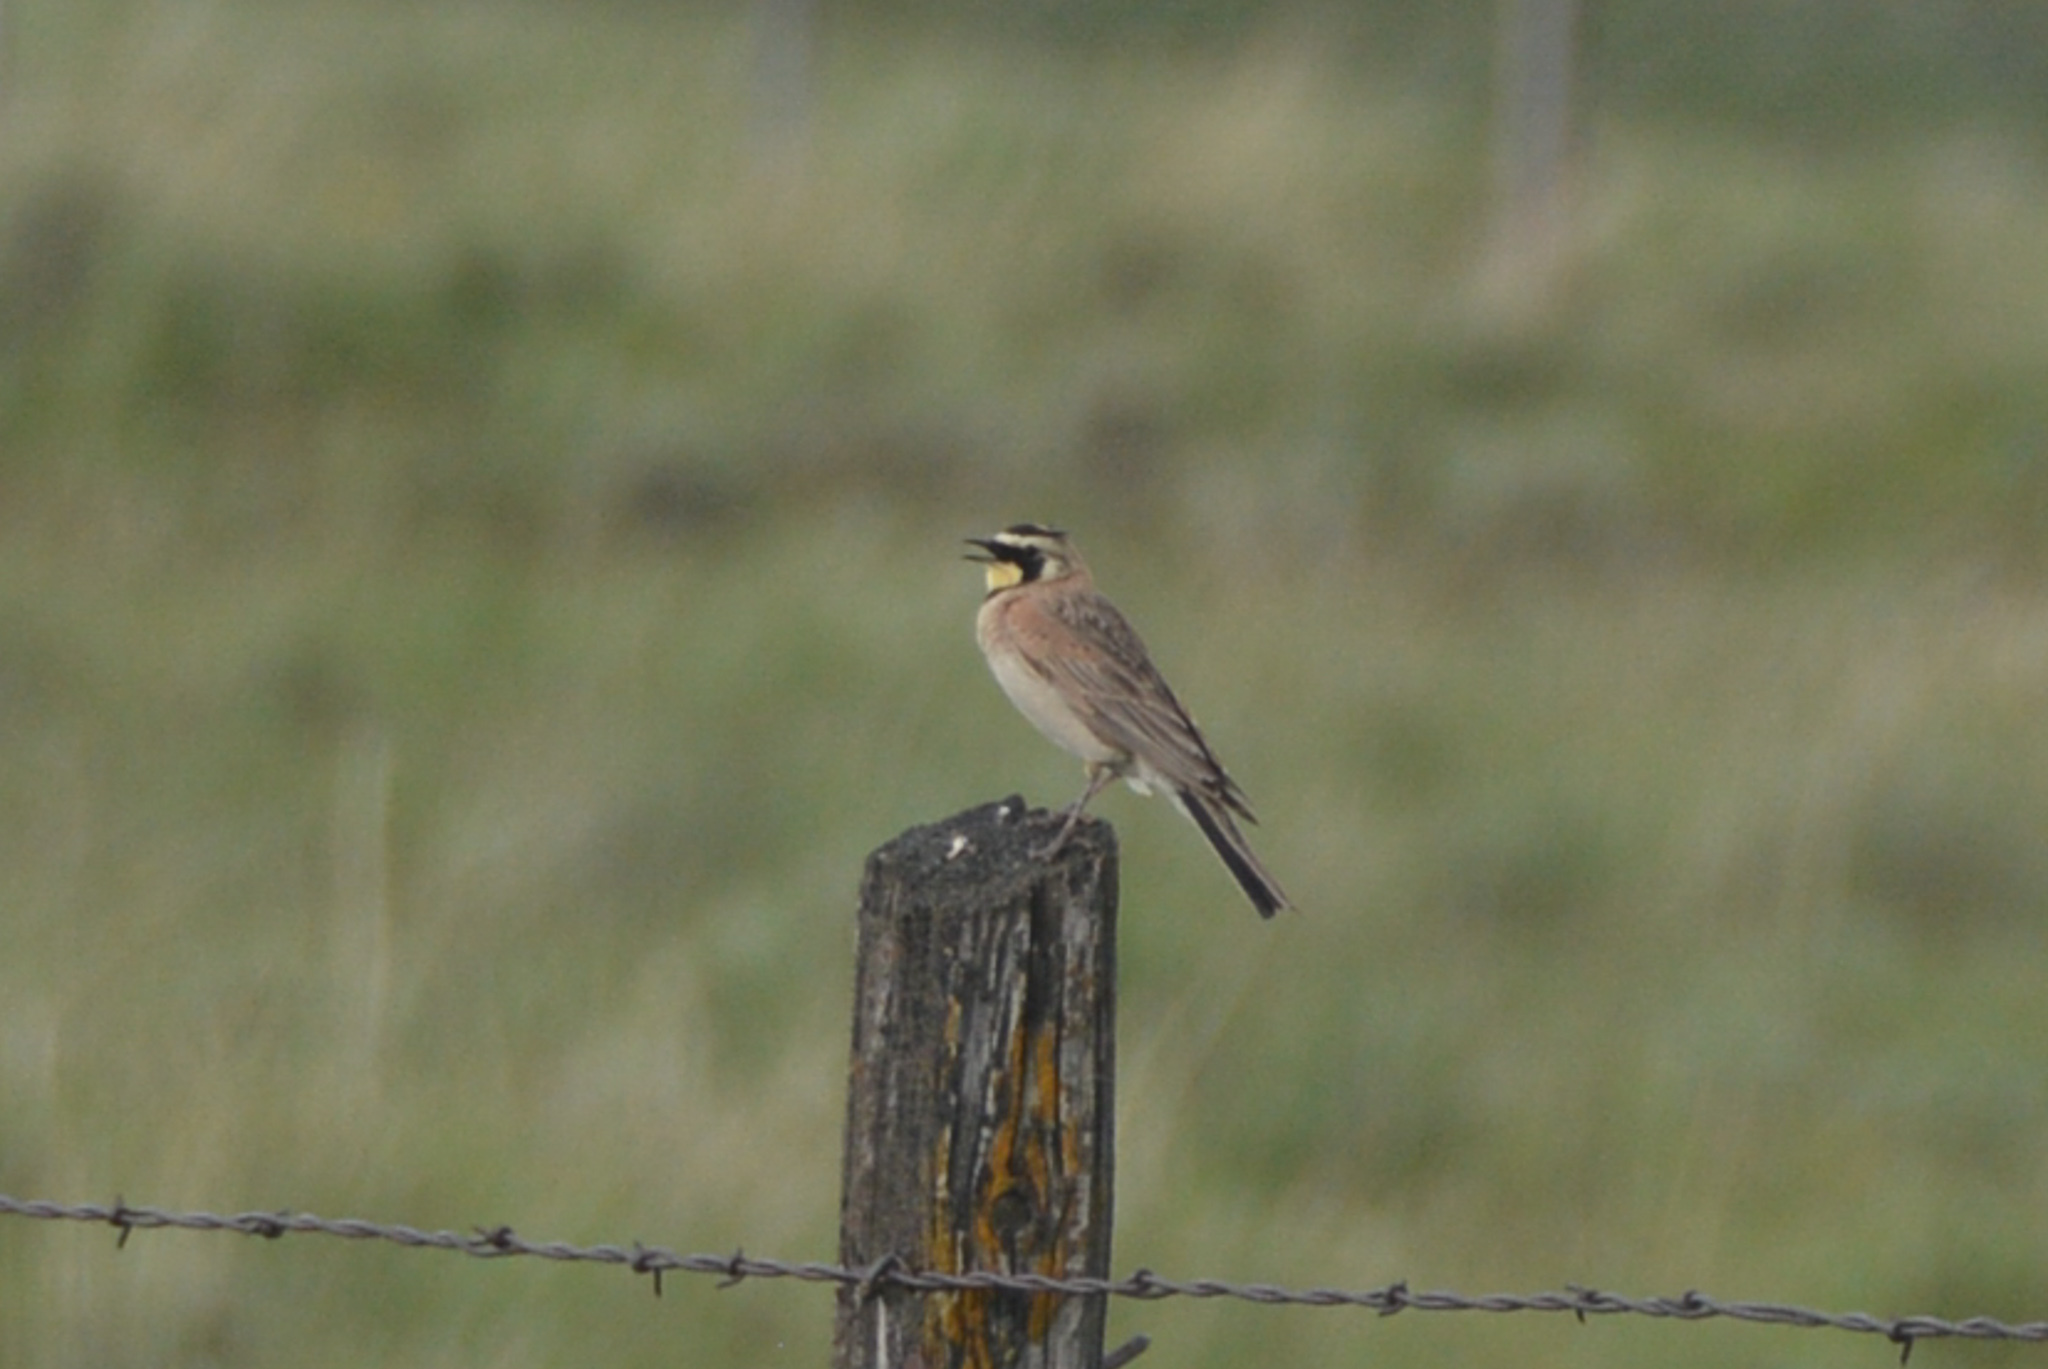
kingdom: Animalia
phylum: Chordata
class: Aves
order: Passeriformes
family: Alaudidae
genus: Eremophila
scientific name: Eremophila alpestris
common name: Horned lark
